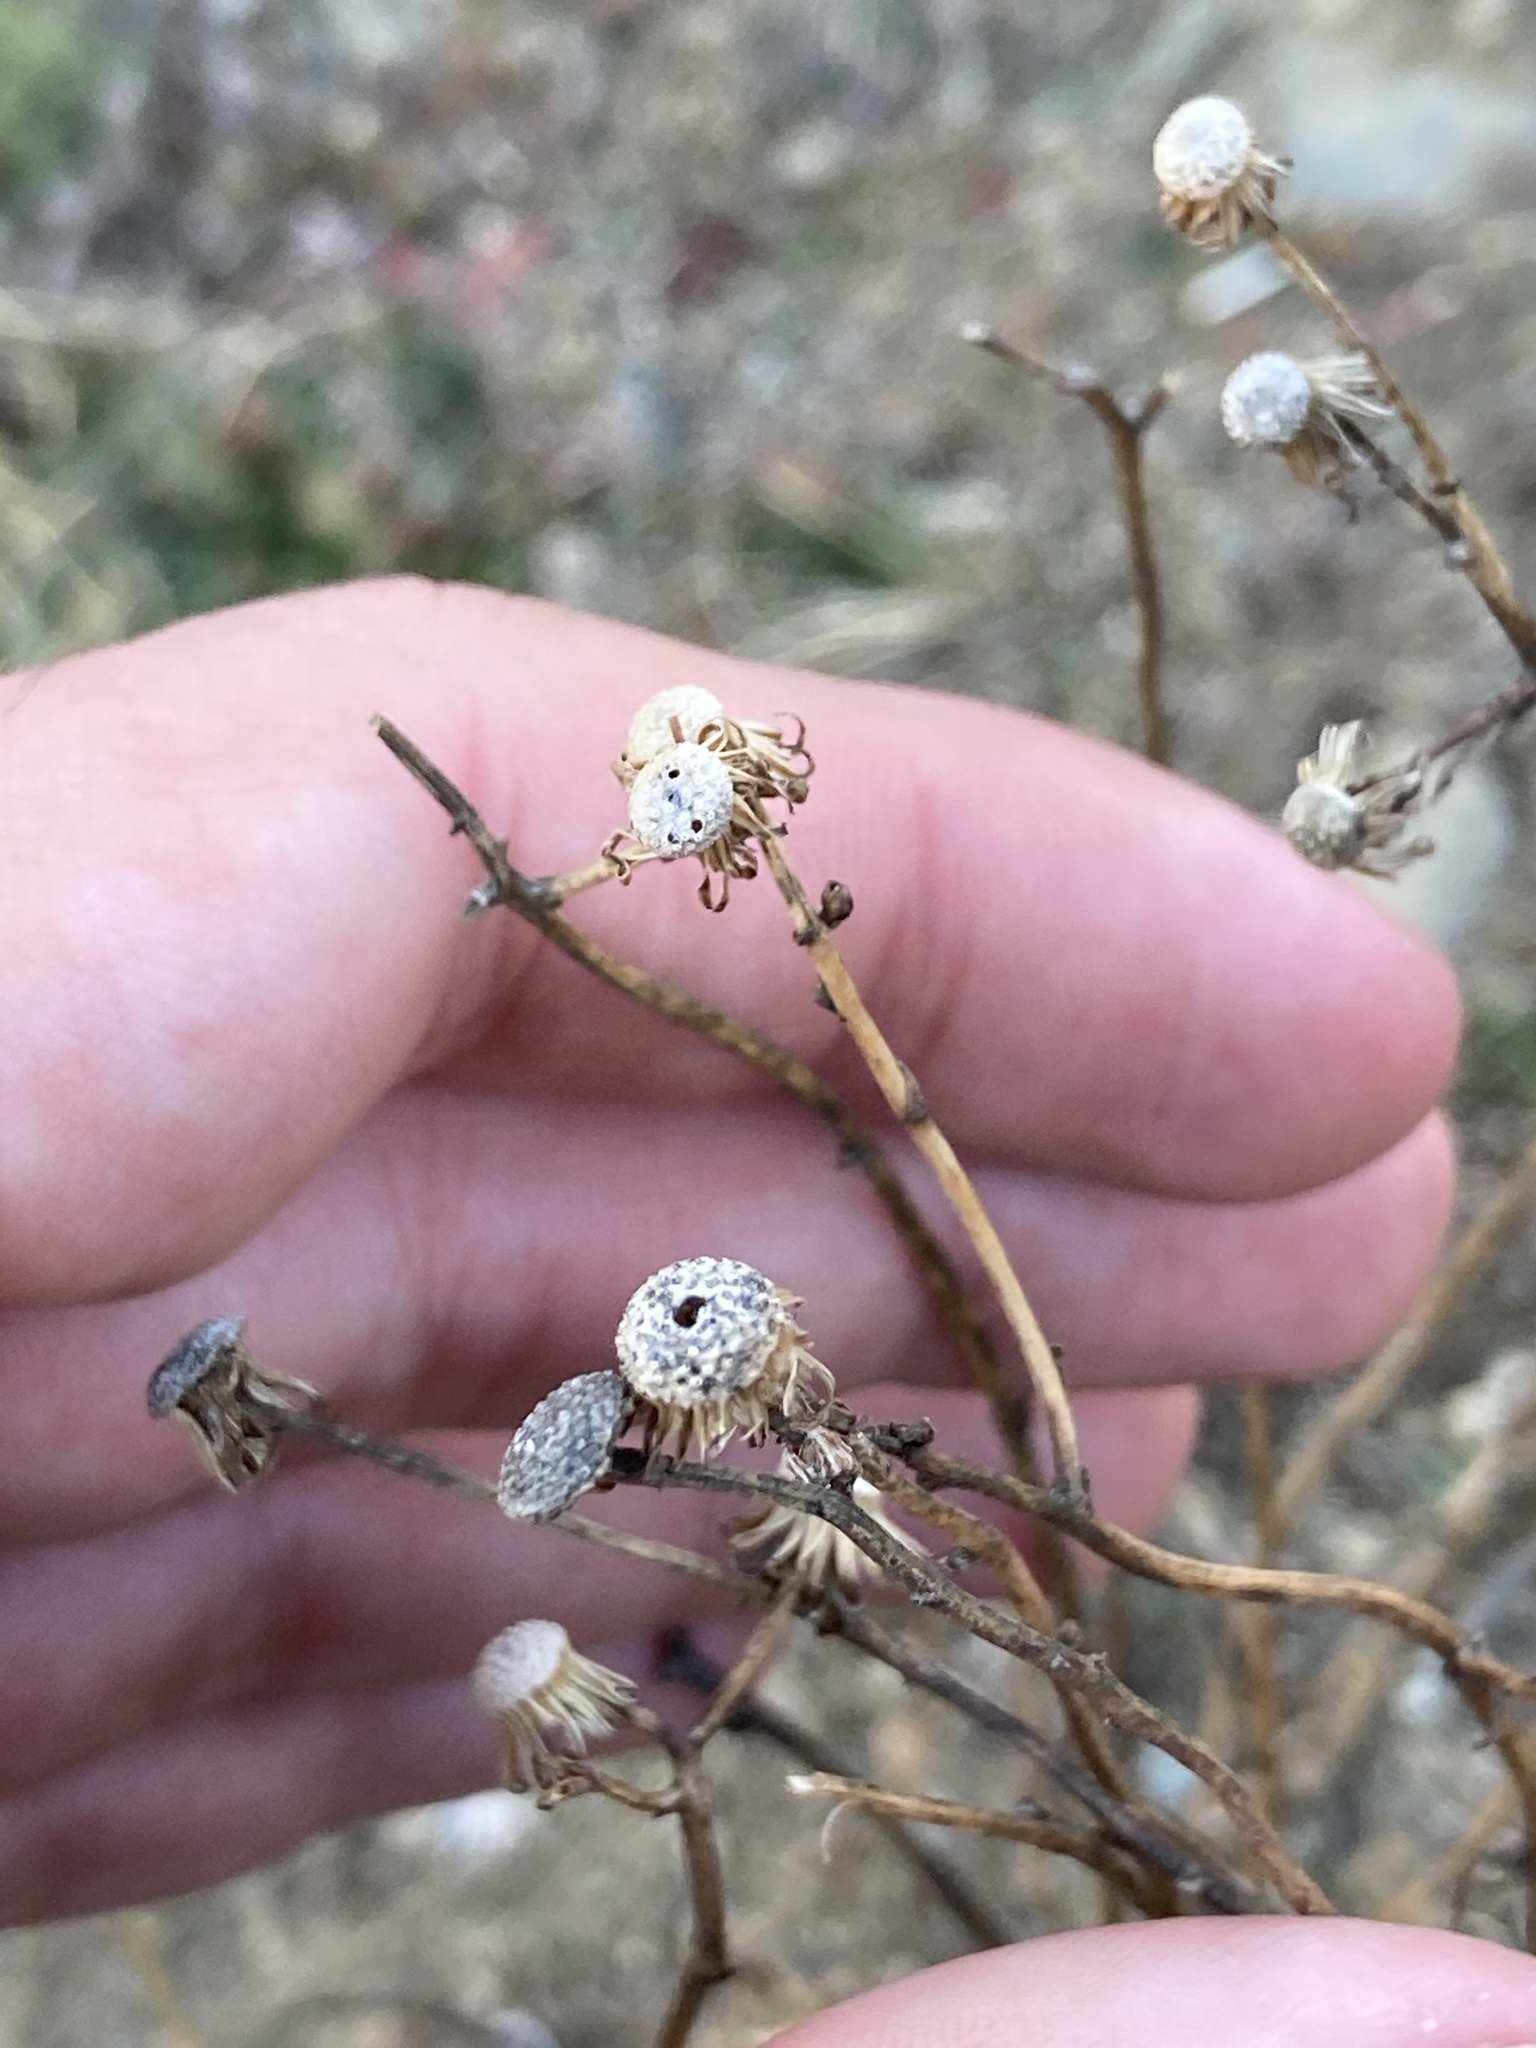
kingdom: Plantae
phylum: Tracheophyta
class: Magnoliopsida
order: Asterales
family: Asteraceae
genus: Senecio
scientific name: Senecio inaequidens
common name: Narrow-leaved ragwort
